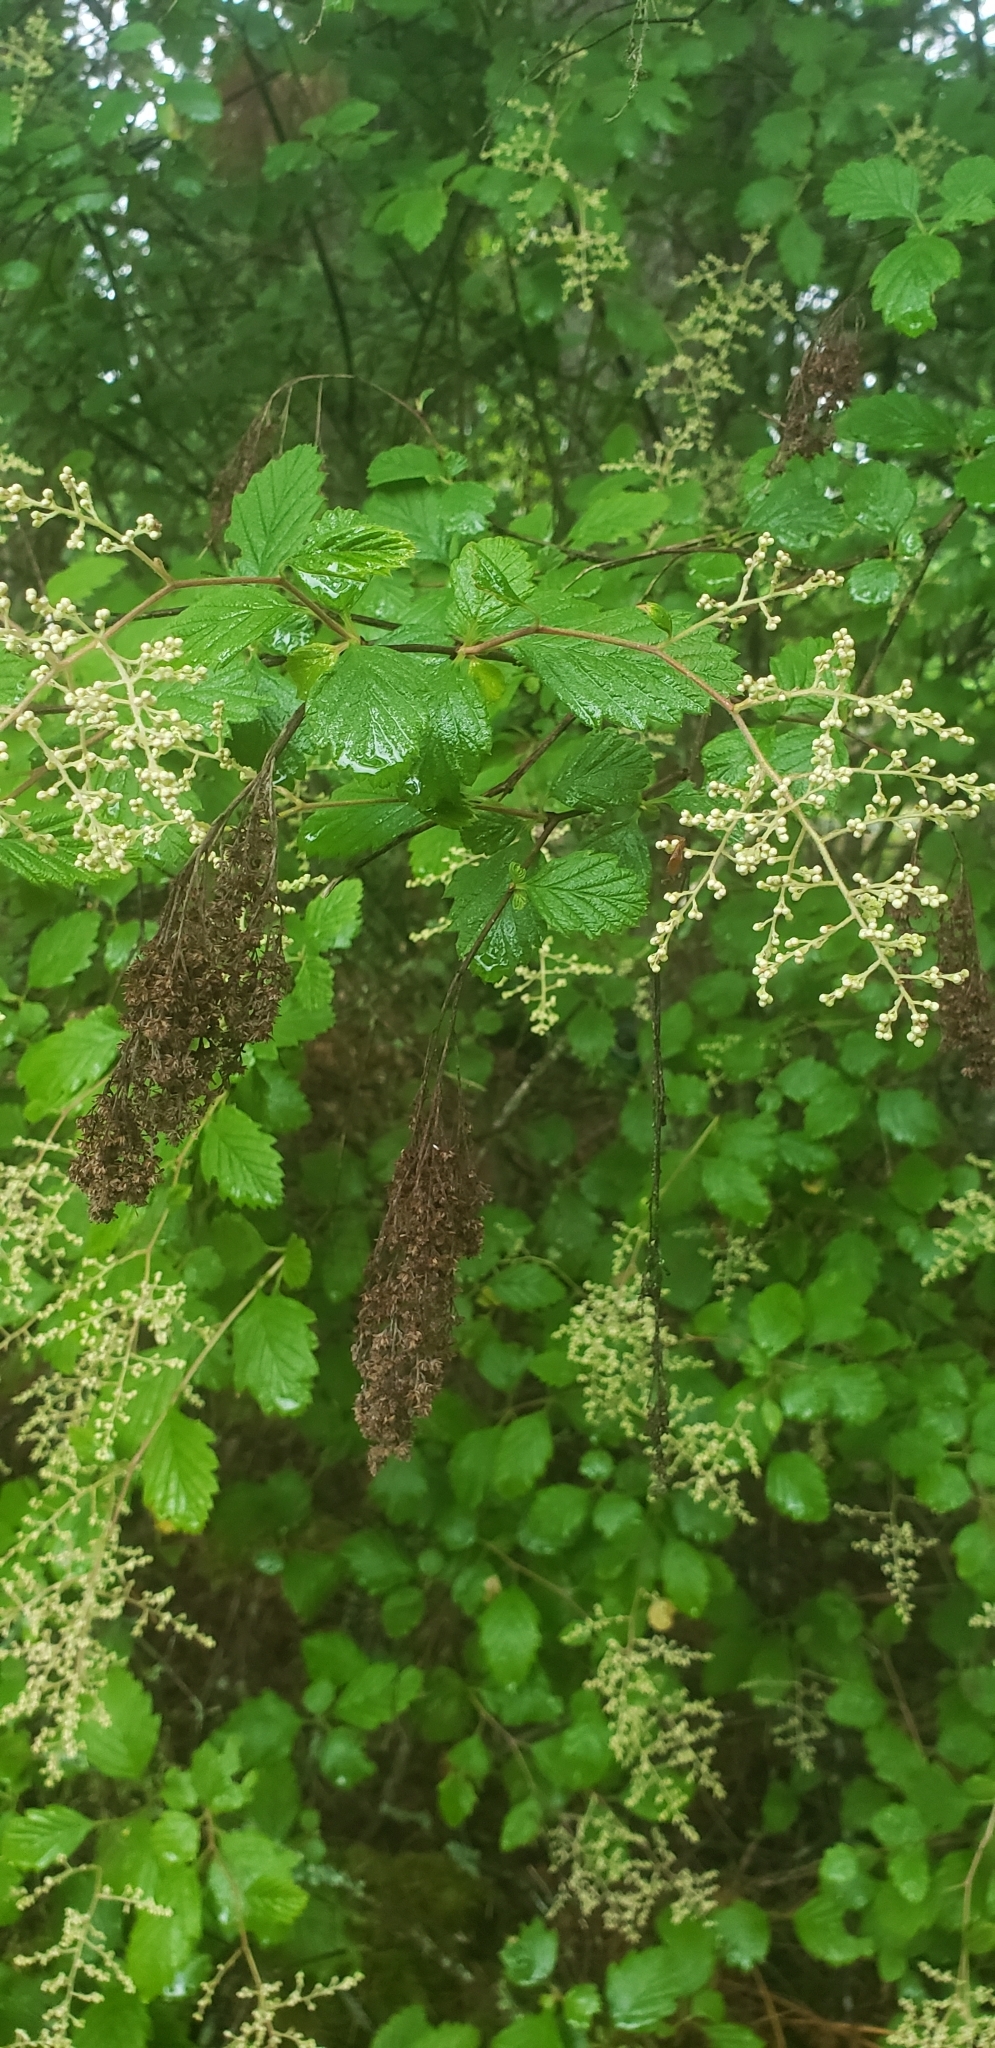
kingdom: Plantae
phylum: Tracheophyta
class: Magnoliopsida
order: Rosales
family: Rosaceae
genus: Holodiscus
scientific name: Holodiscus discolor
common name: Oceanspray
